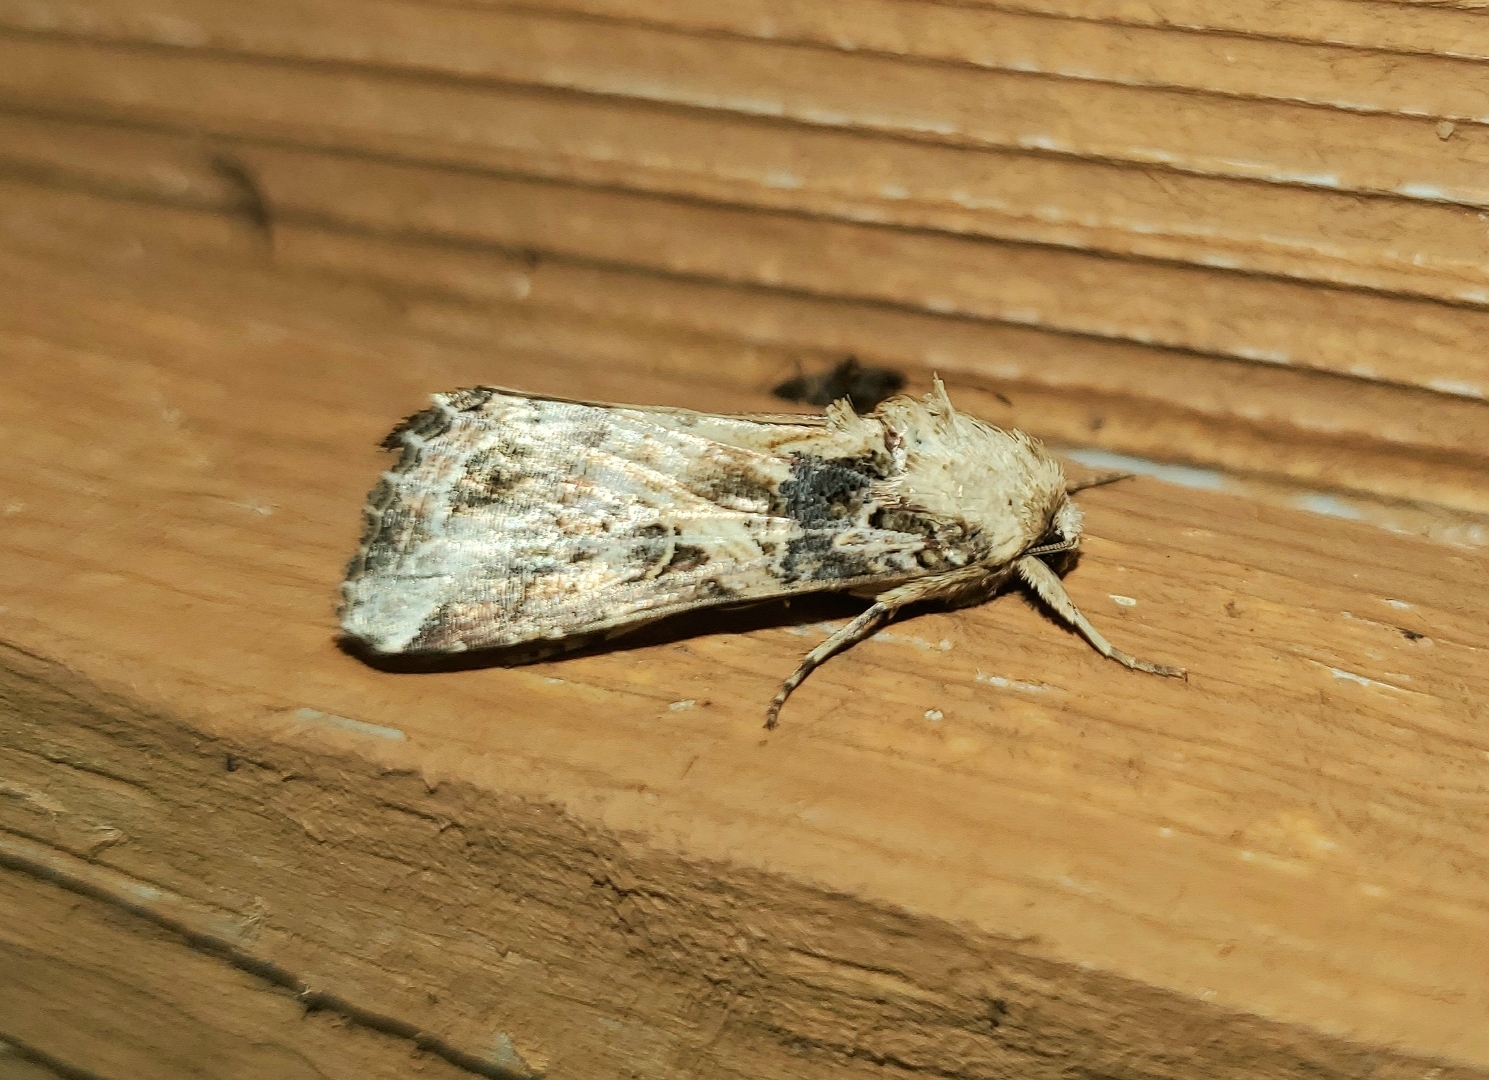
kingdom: Animalia
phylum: Arthropoda
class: Insecta
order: Lepidoptera
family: Noctuidae
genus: Spodoptera
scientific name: Spodoptera ornithogalli
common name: Yellow-striped armyworm
